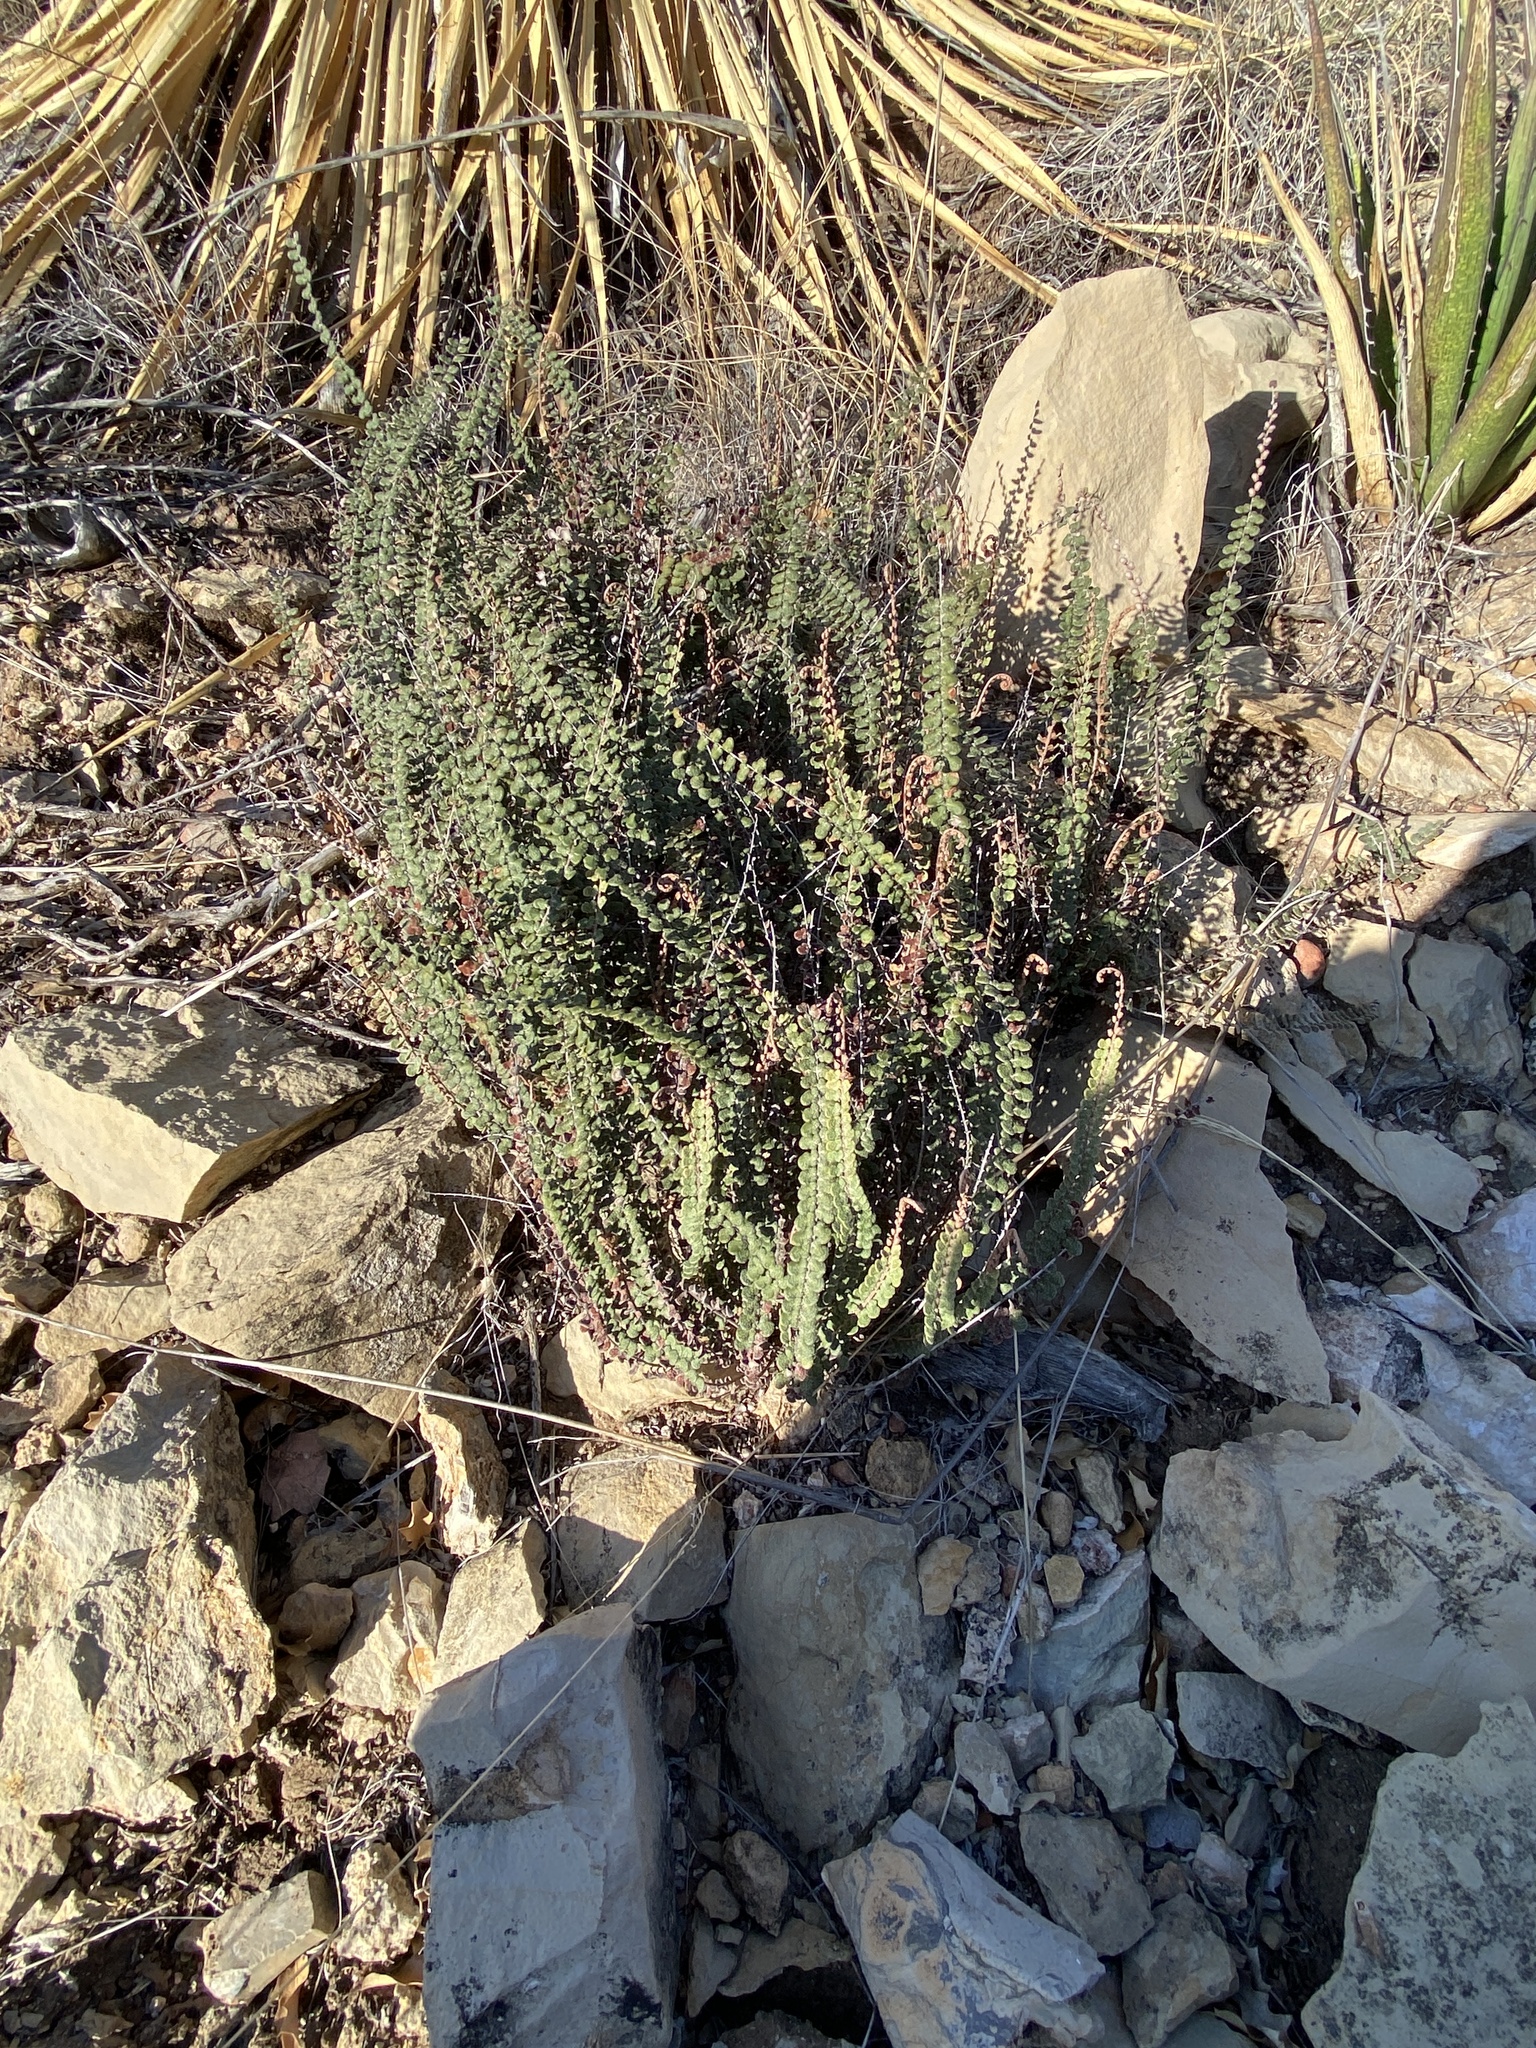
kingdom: Plantae
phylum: Tracheophyta
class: Polypodiopsida
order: Polypodiales
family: Pteridaceae
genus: Astrolepis
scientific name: Astrolepis cochisensis
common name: Scaly cloak fern
